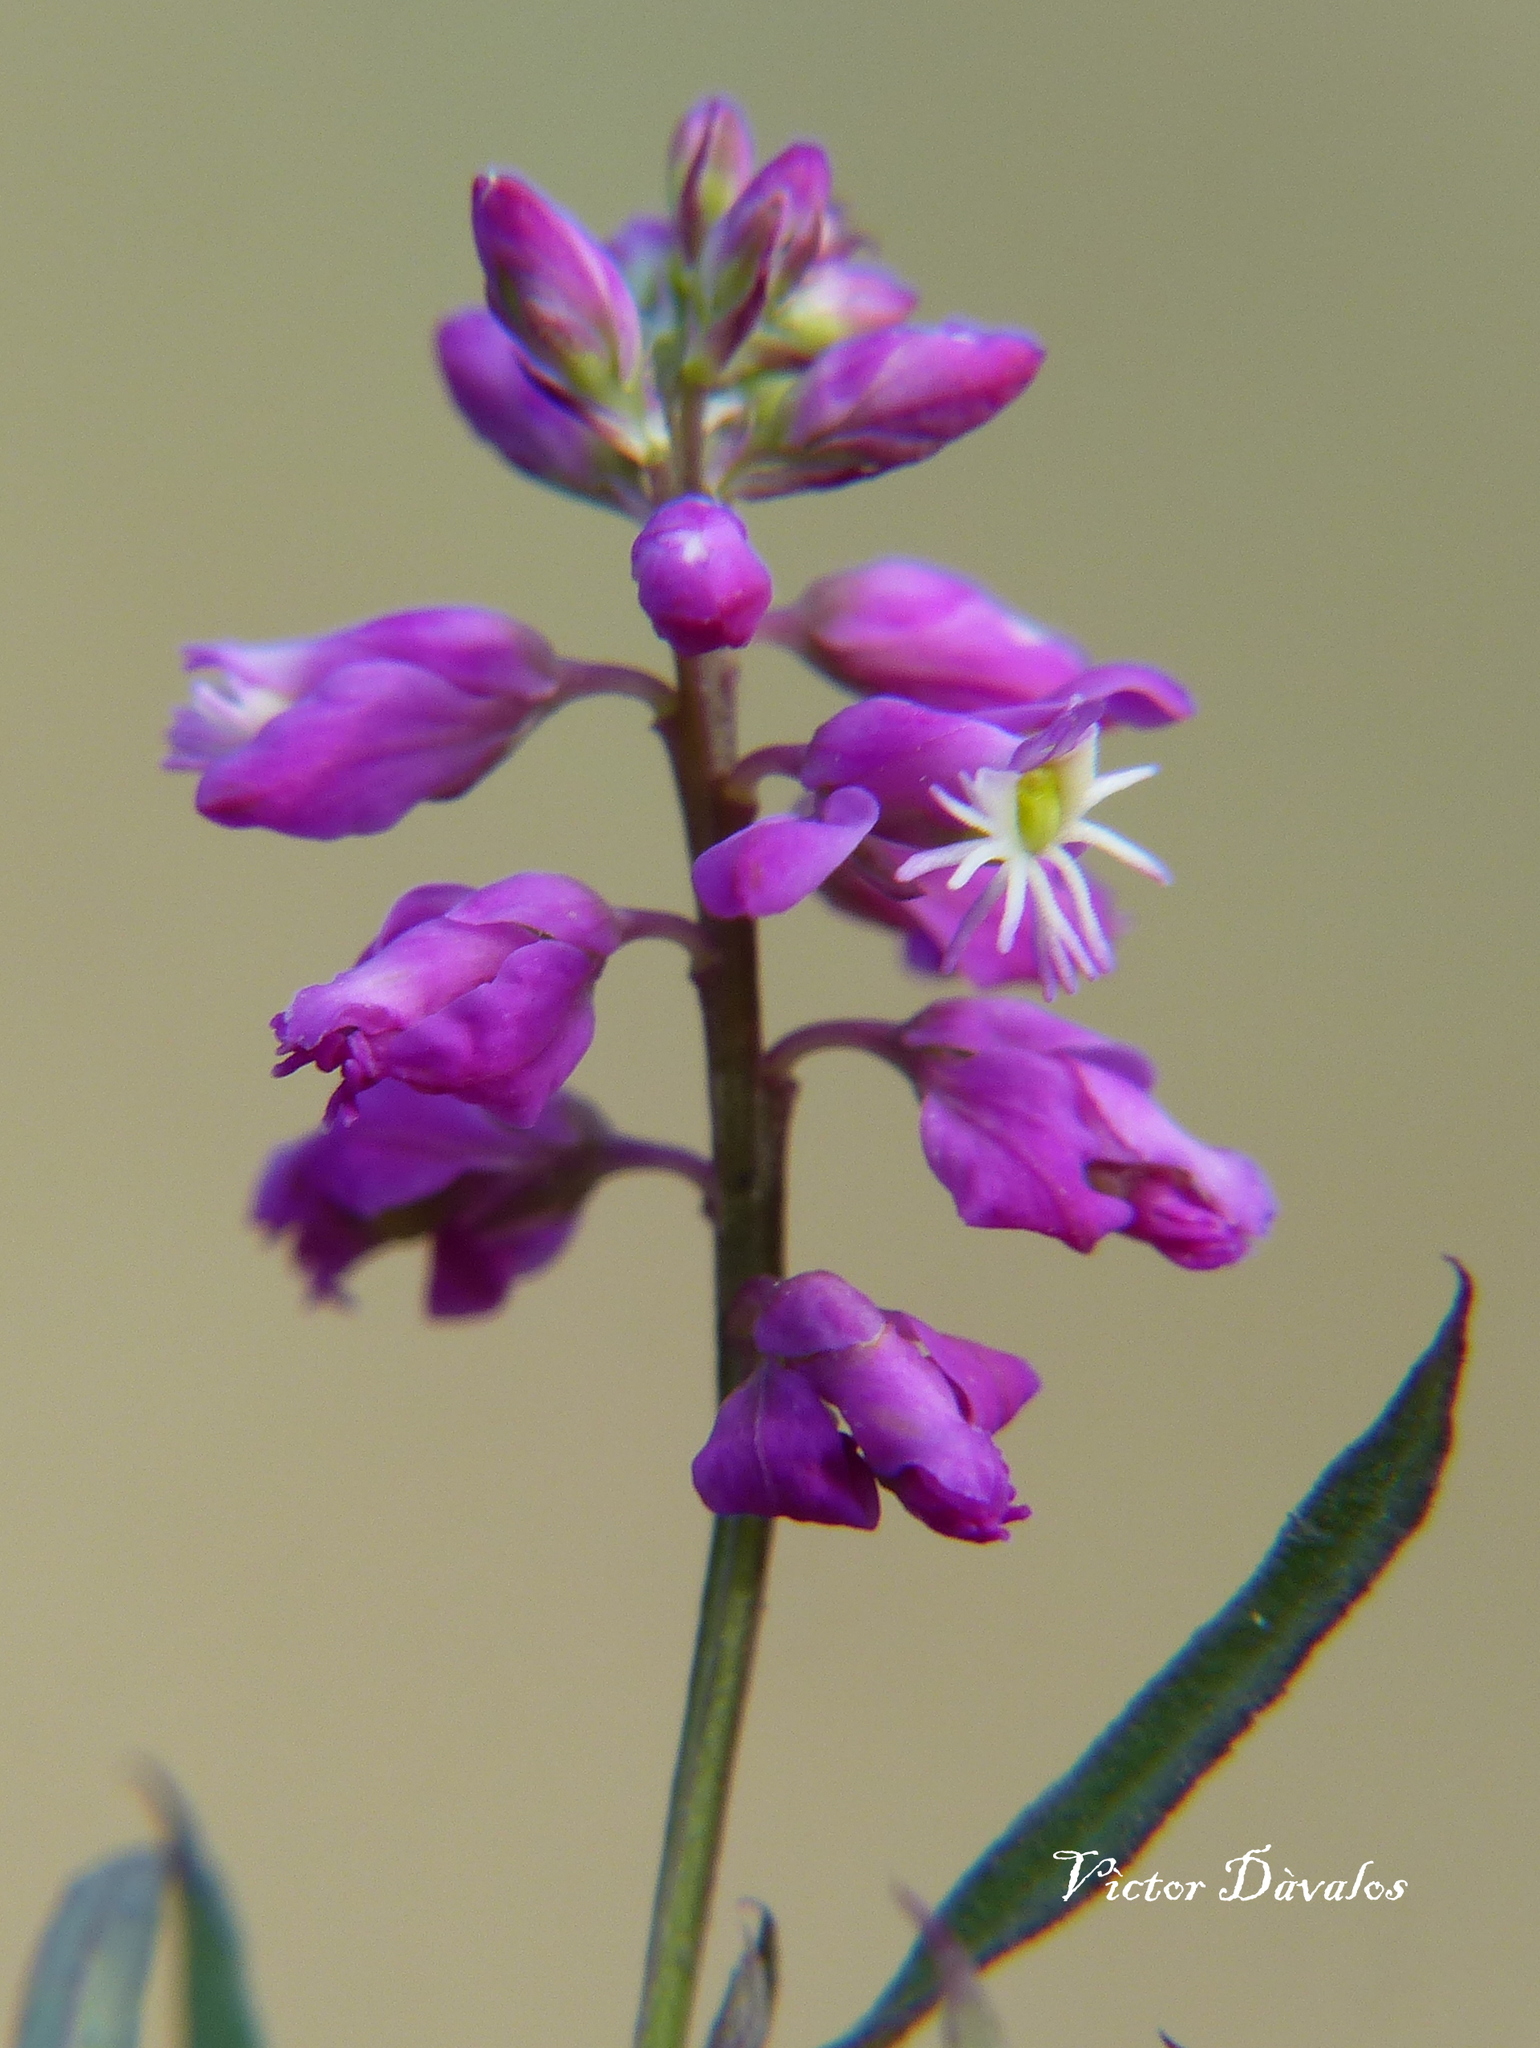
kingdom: Plantae
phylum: Tracheophyta
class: Magnoliopsida
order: Fabales
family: Polygalaceae
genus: Polygala
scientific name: Polygala molluginifolia
